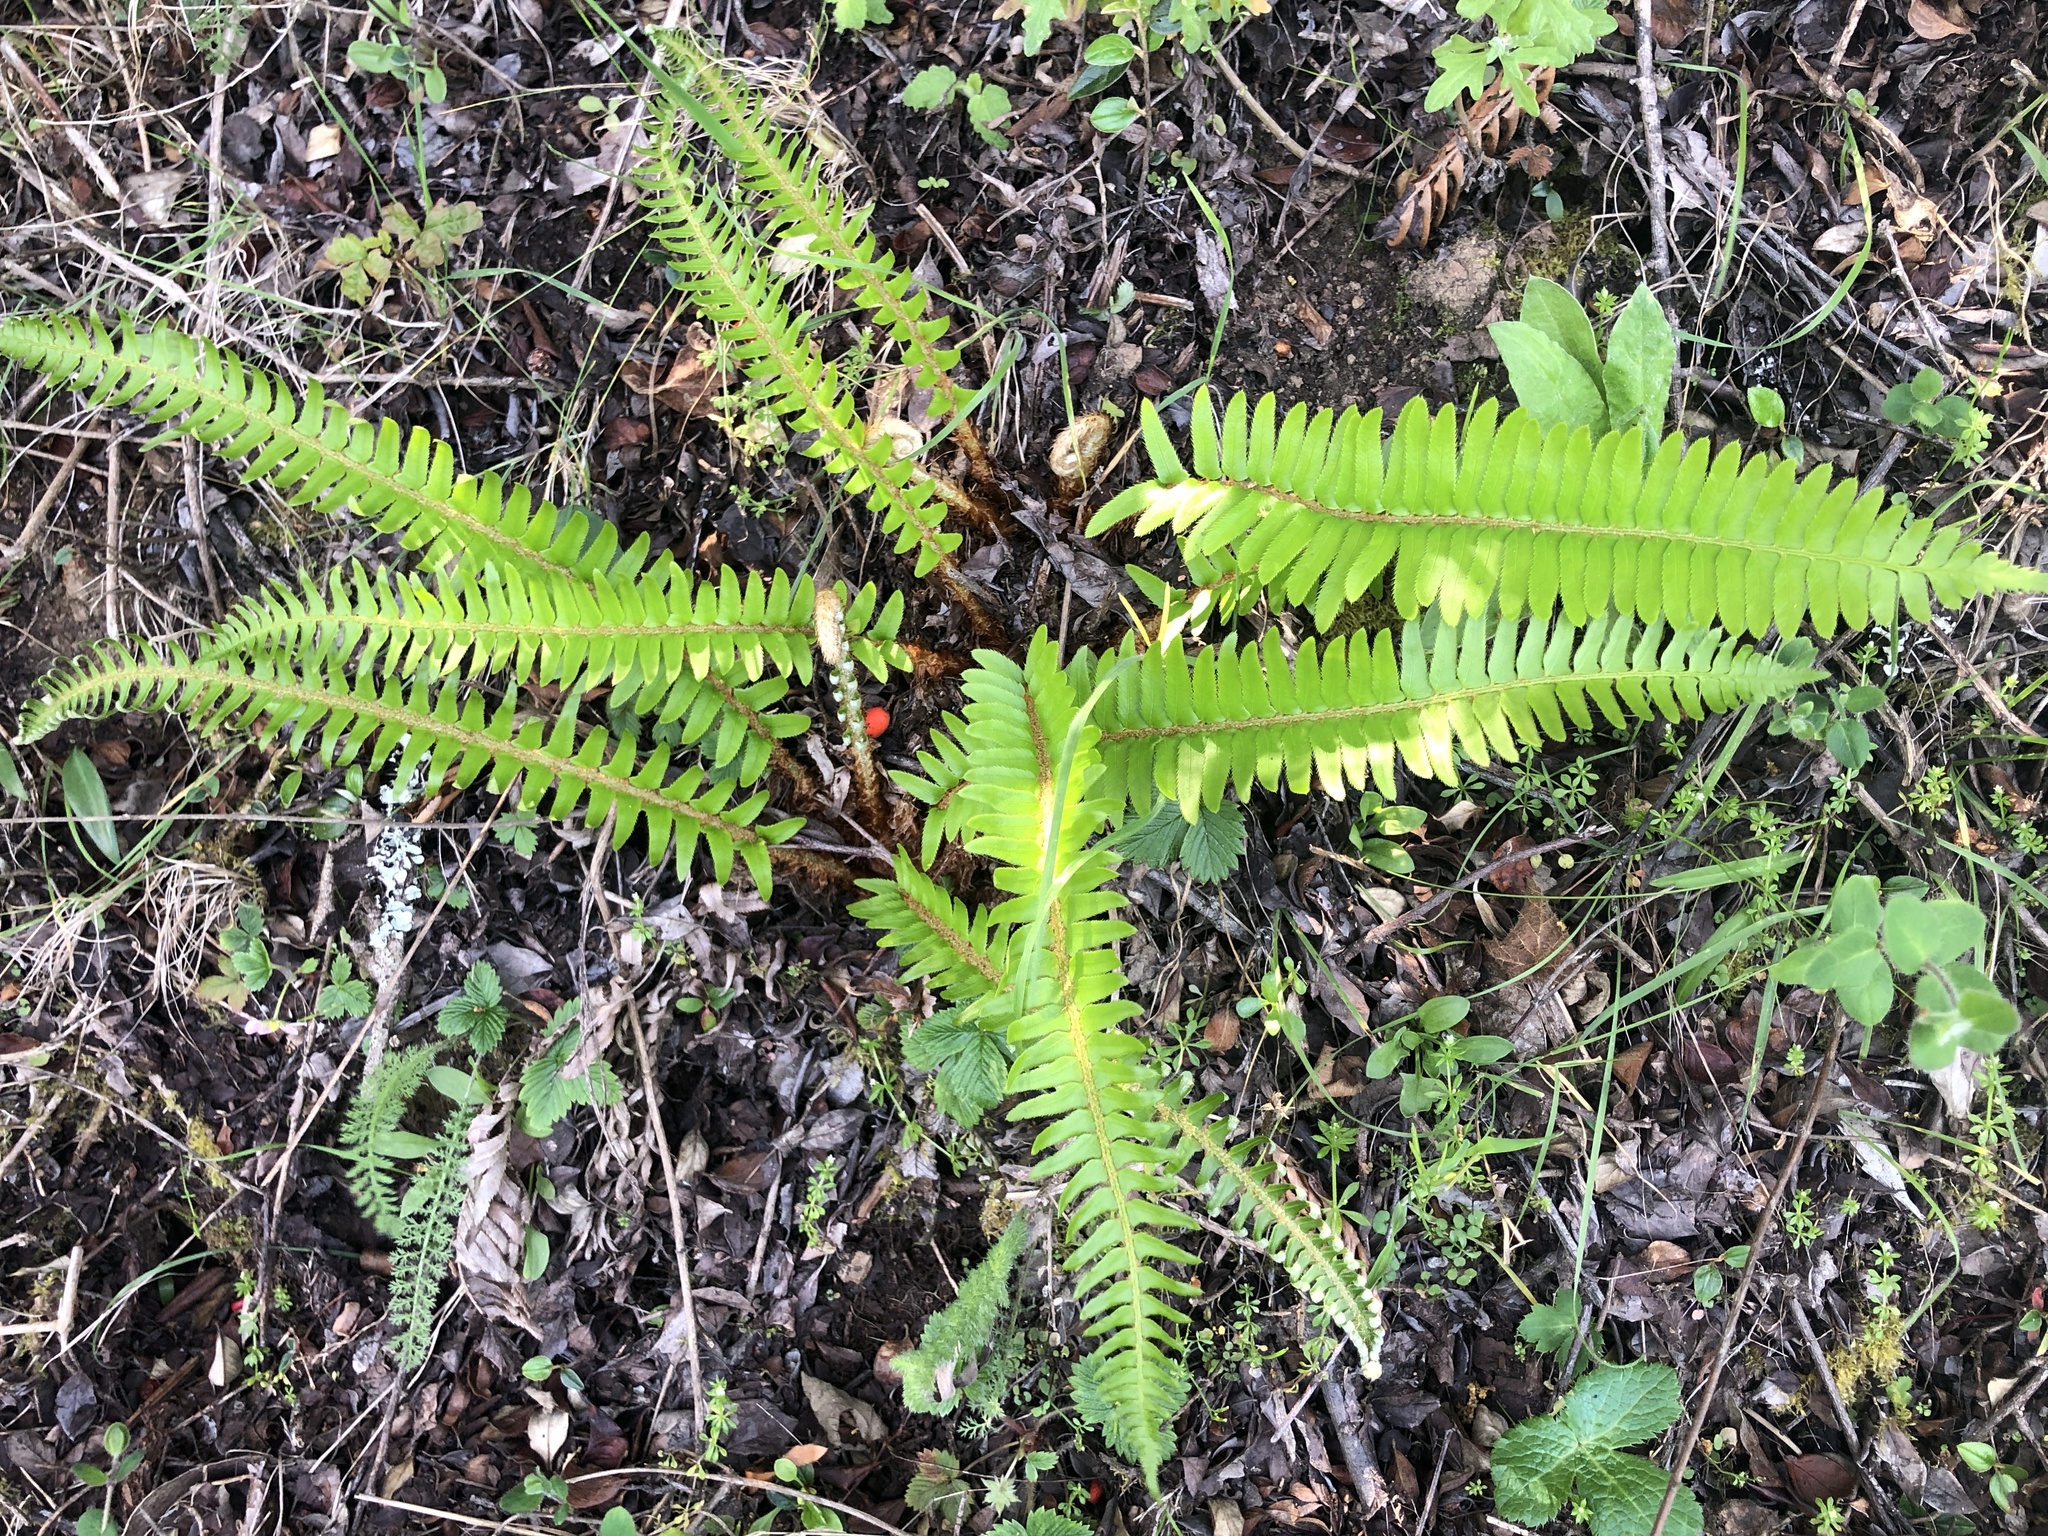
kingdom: Plantae
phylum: Tracheophyta
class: Polypodiopsida
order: Polypodiales
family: Dryopteridaceae
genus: Polystichum
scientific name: Polystichum imbricans
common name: Dwarf western sword fern
